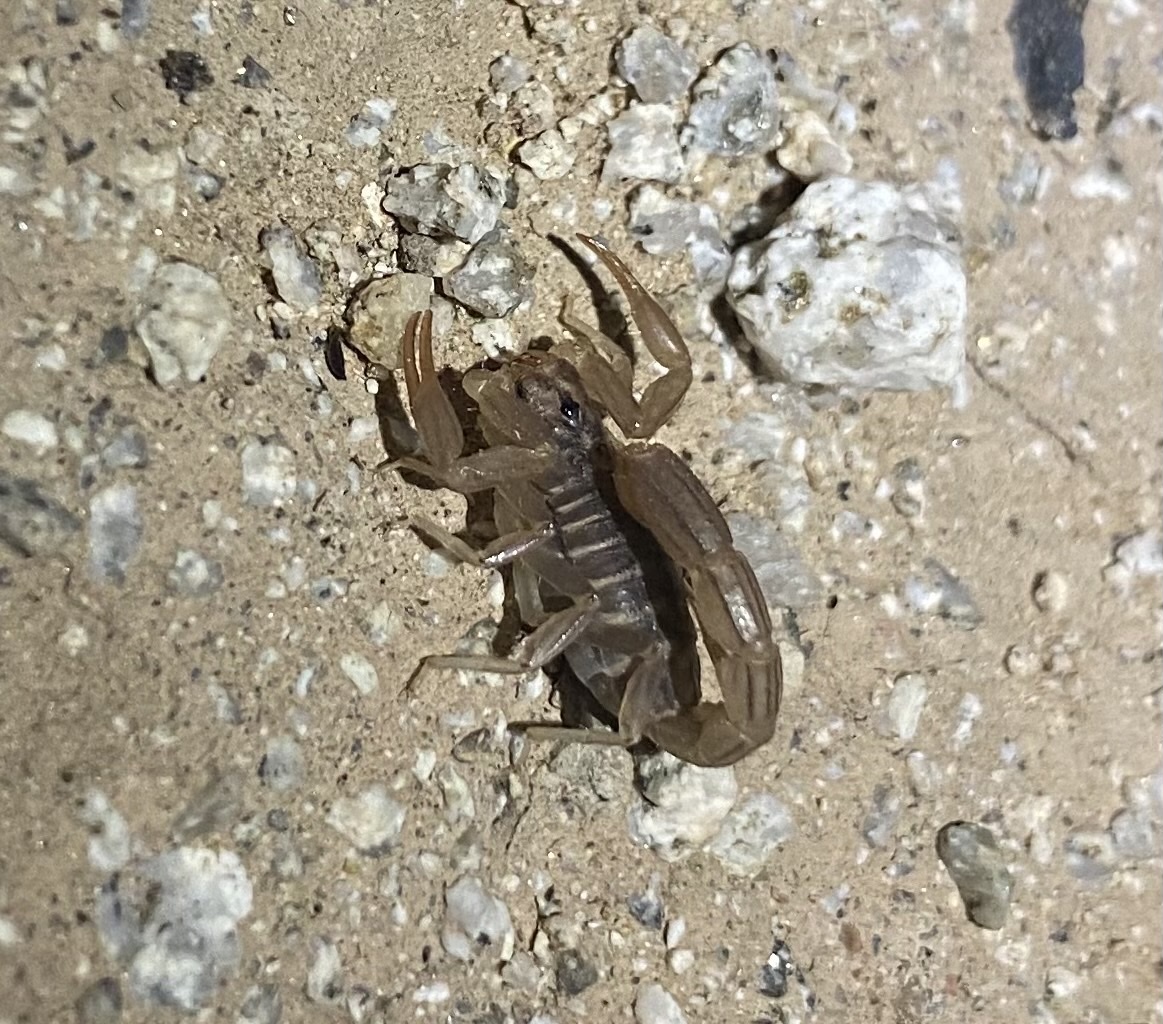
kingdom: Animalia
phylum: Arthropoda
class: Arachnida
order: Scorpiones
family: Vaejovidae
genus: Paravaejovis
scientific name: Paravaejovis spinigerus
